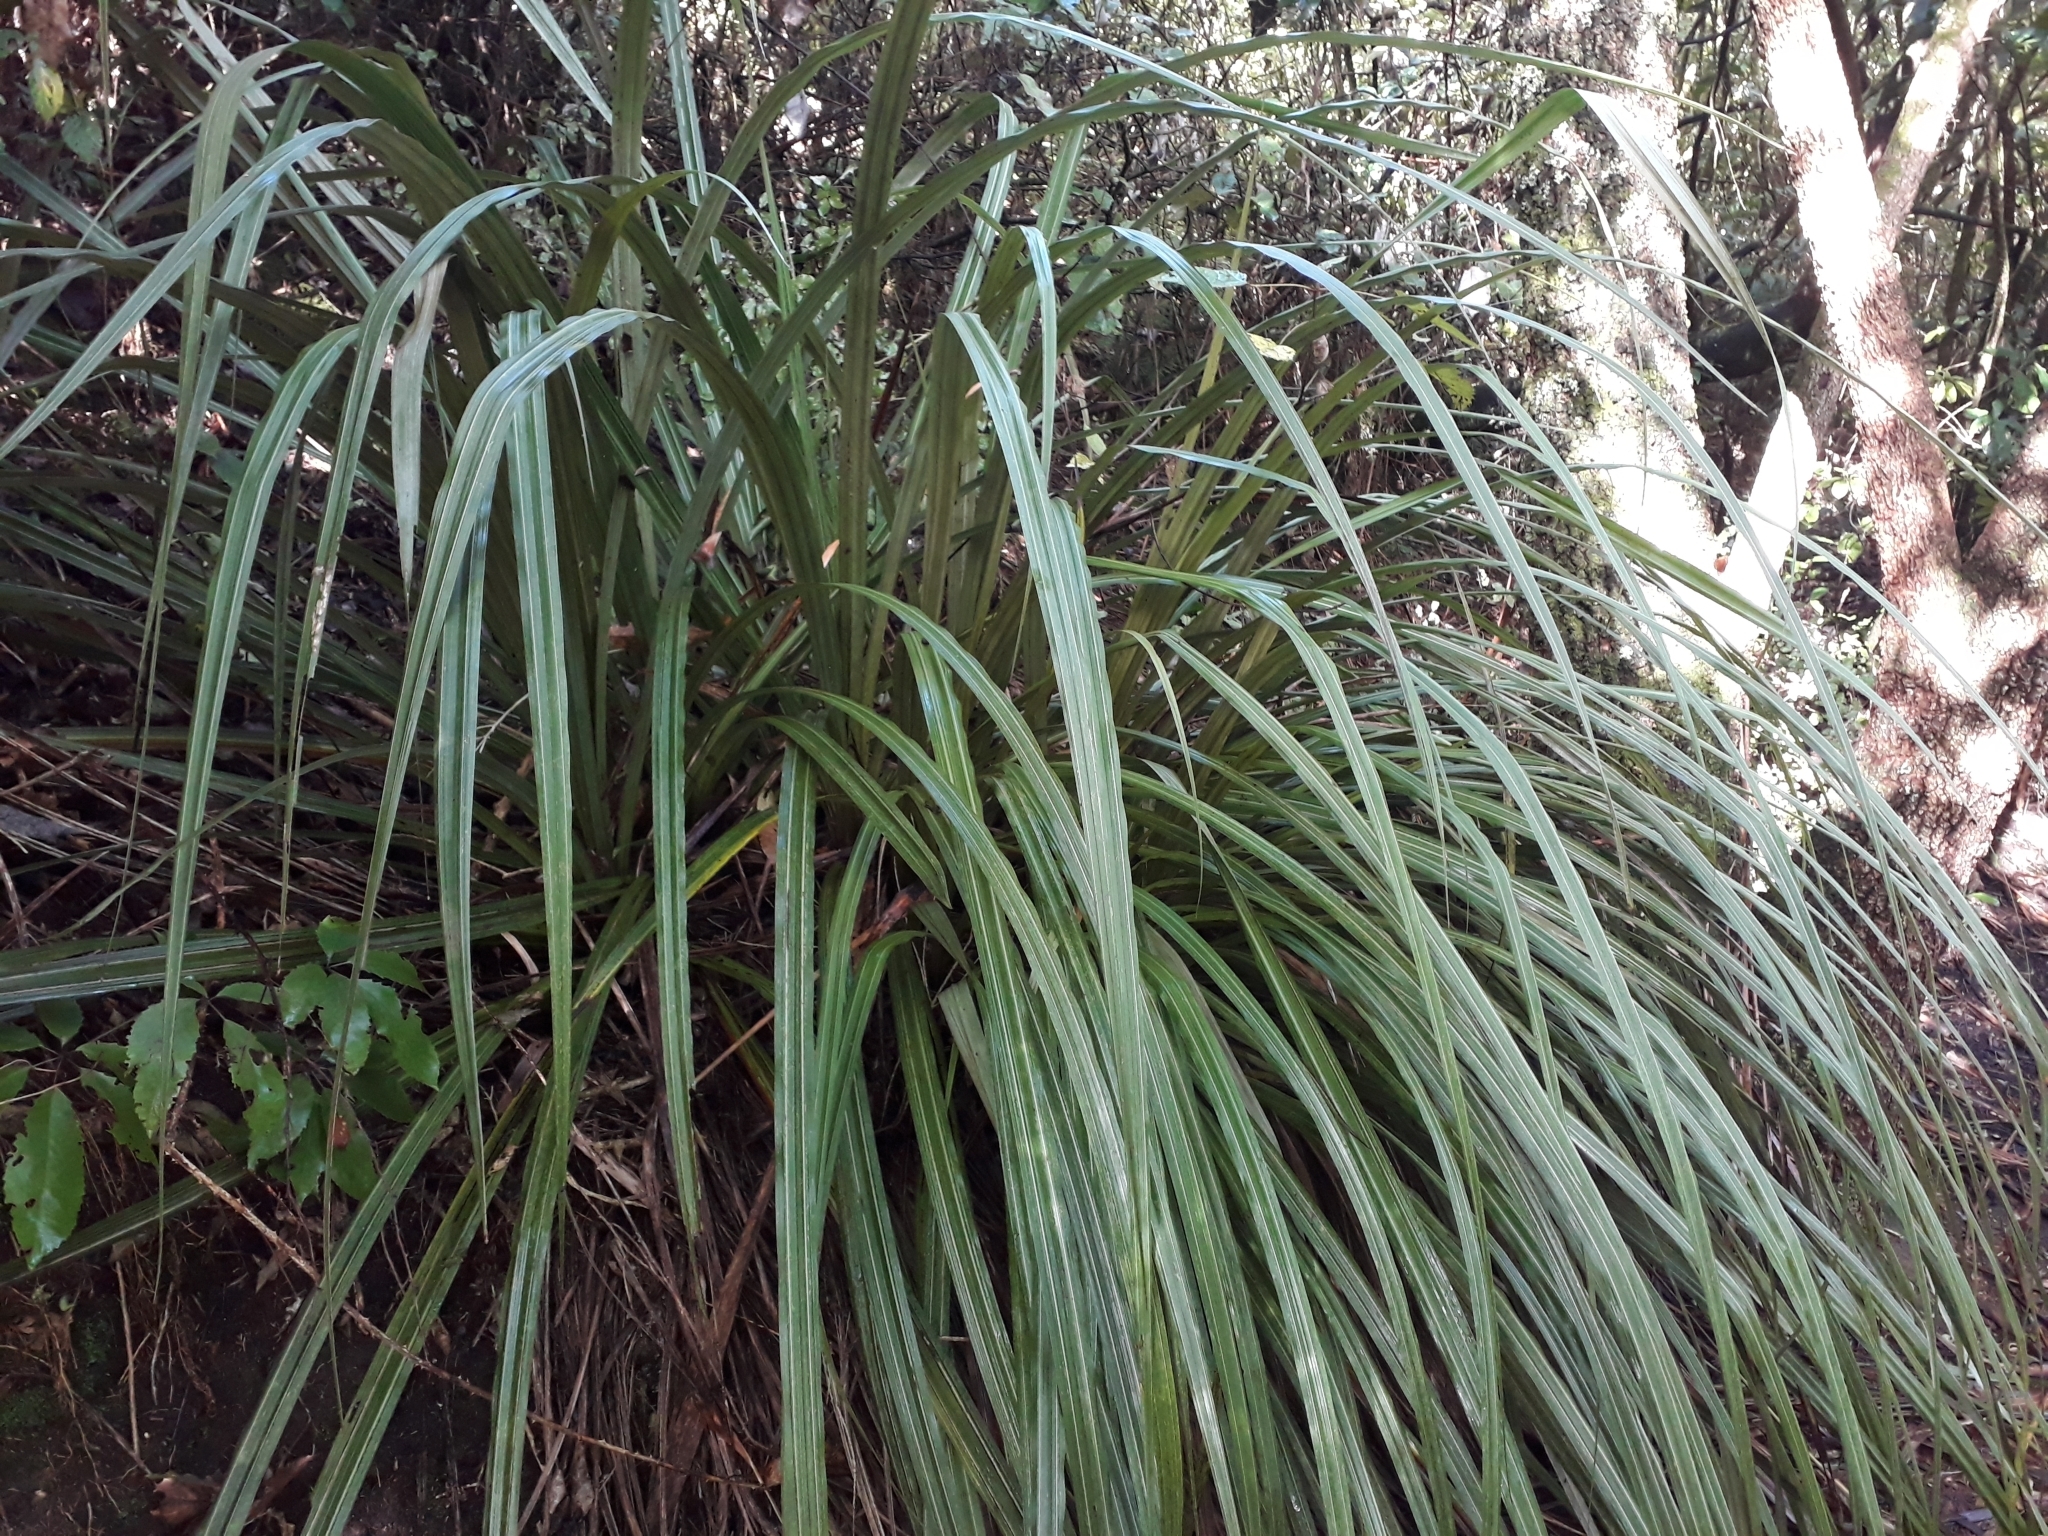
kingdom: Plantae
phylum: Tracheophyta
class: Liliopsida
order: Asparagales
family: Asteliaceae
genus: Astelia
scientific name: Astelia fragrans
